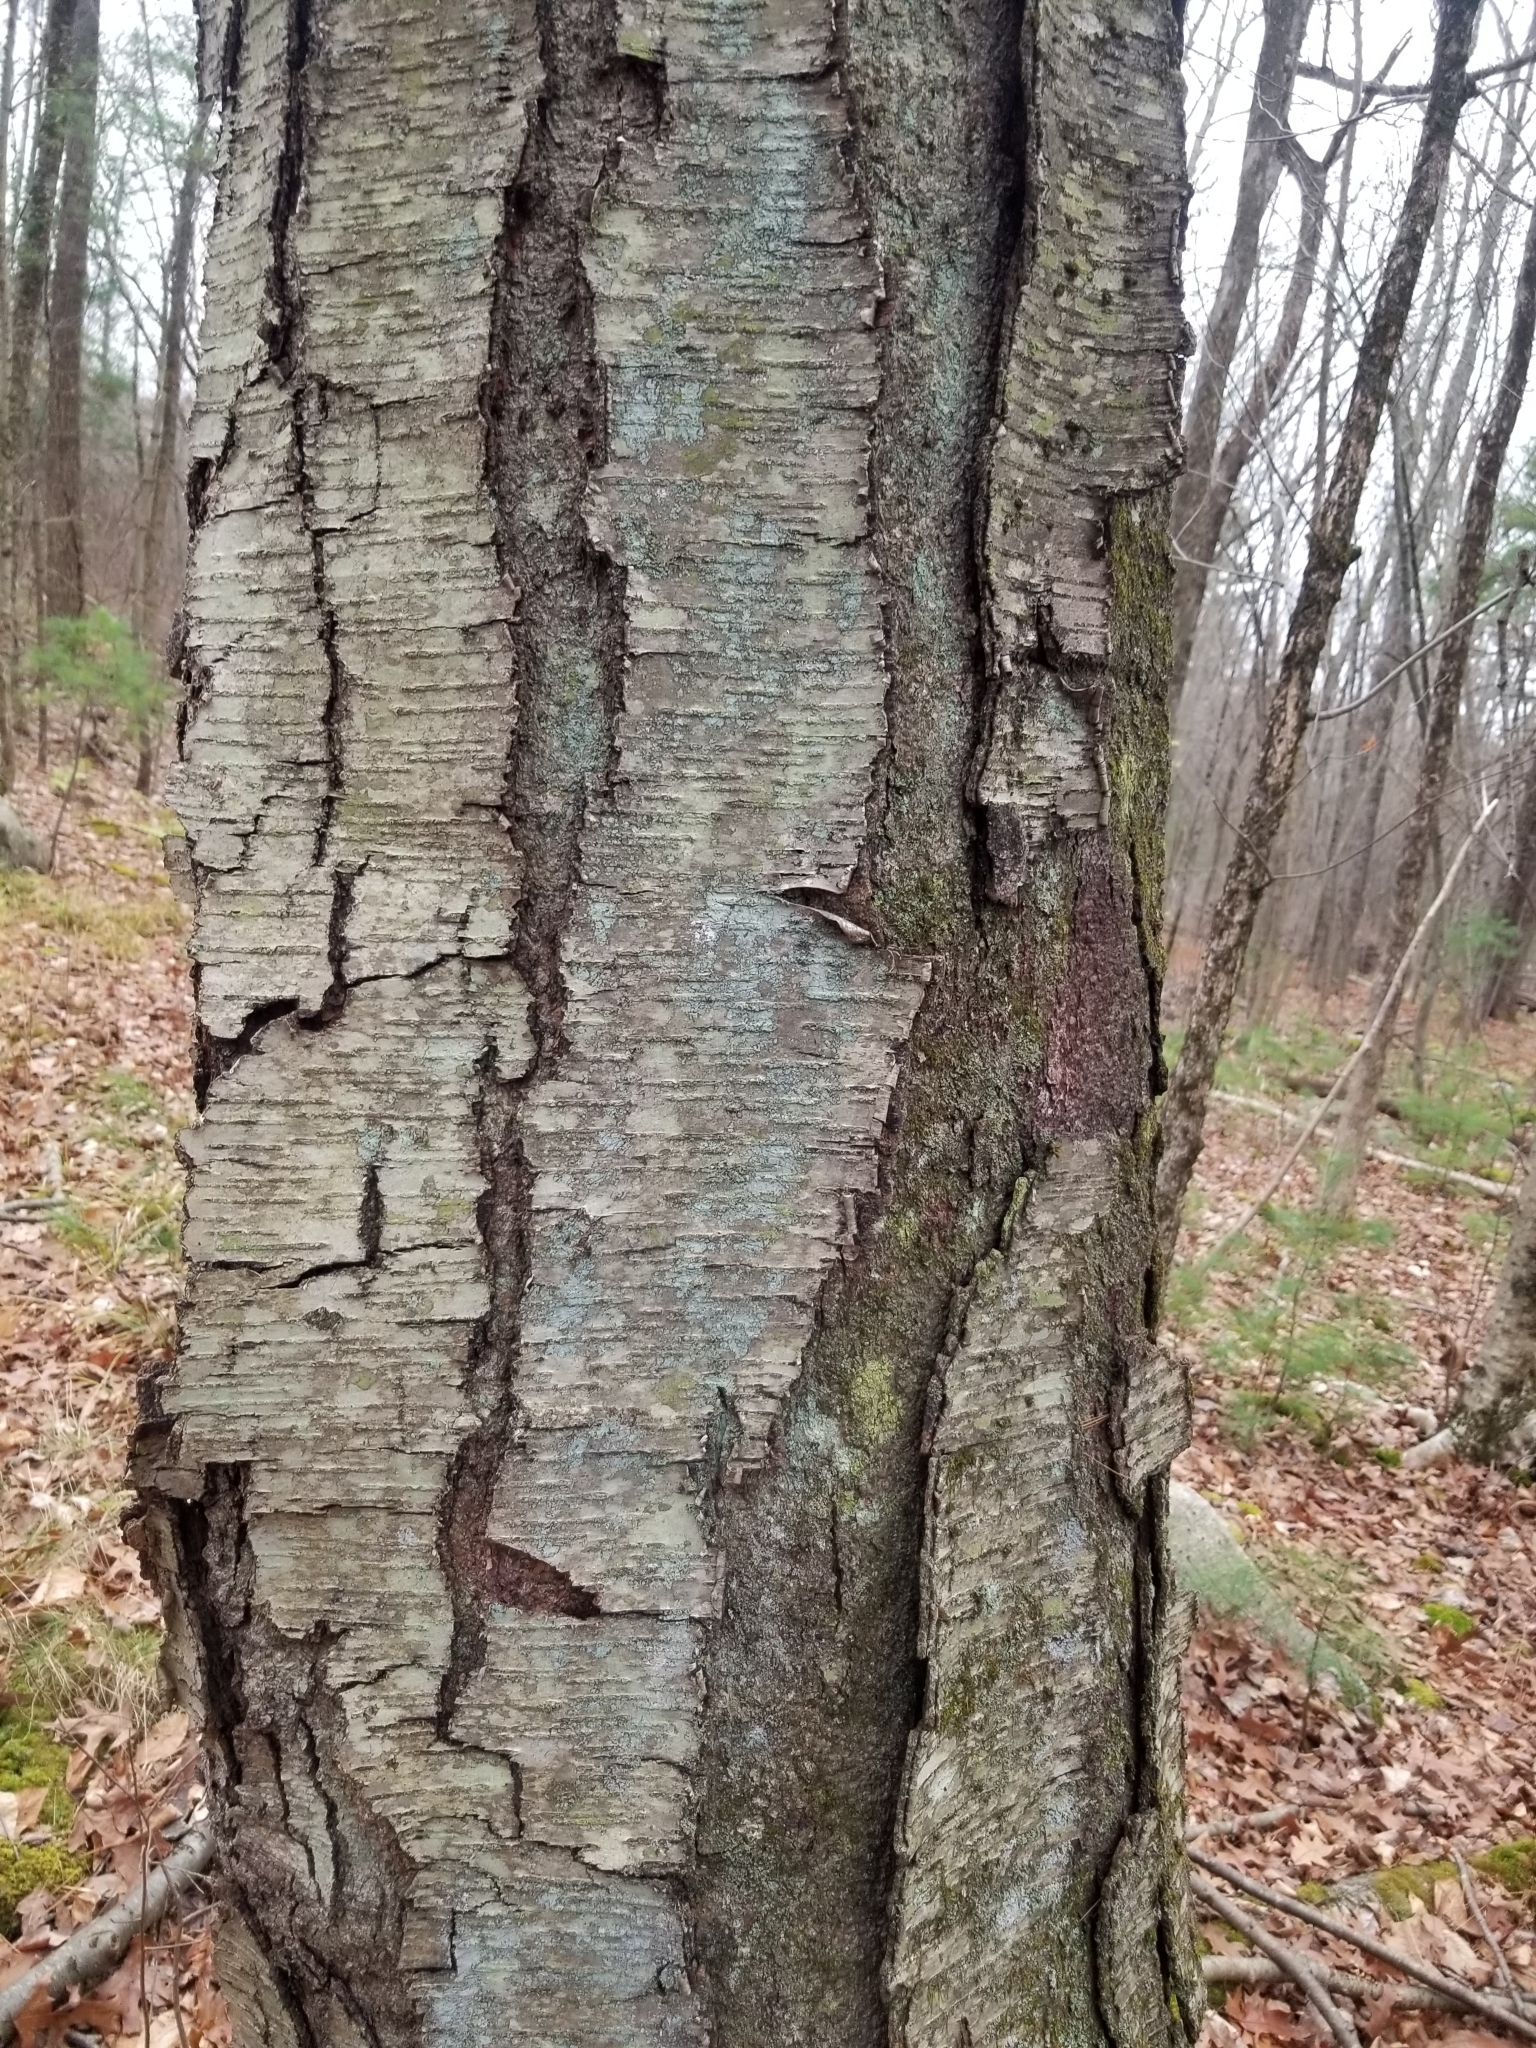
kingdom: Plantae
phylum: Tracheophyta
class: Magnoliopsida
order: Fagales
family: Betulaceae
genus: Betula
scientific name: Betula lenta
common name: Black birch
